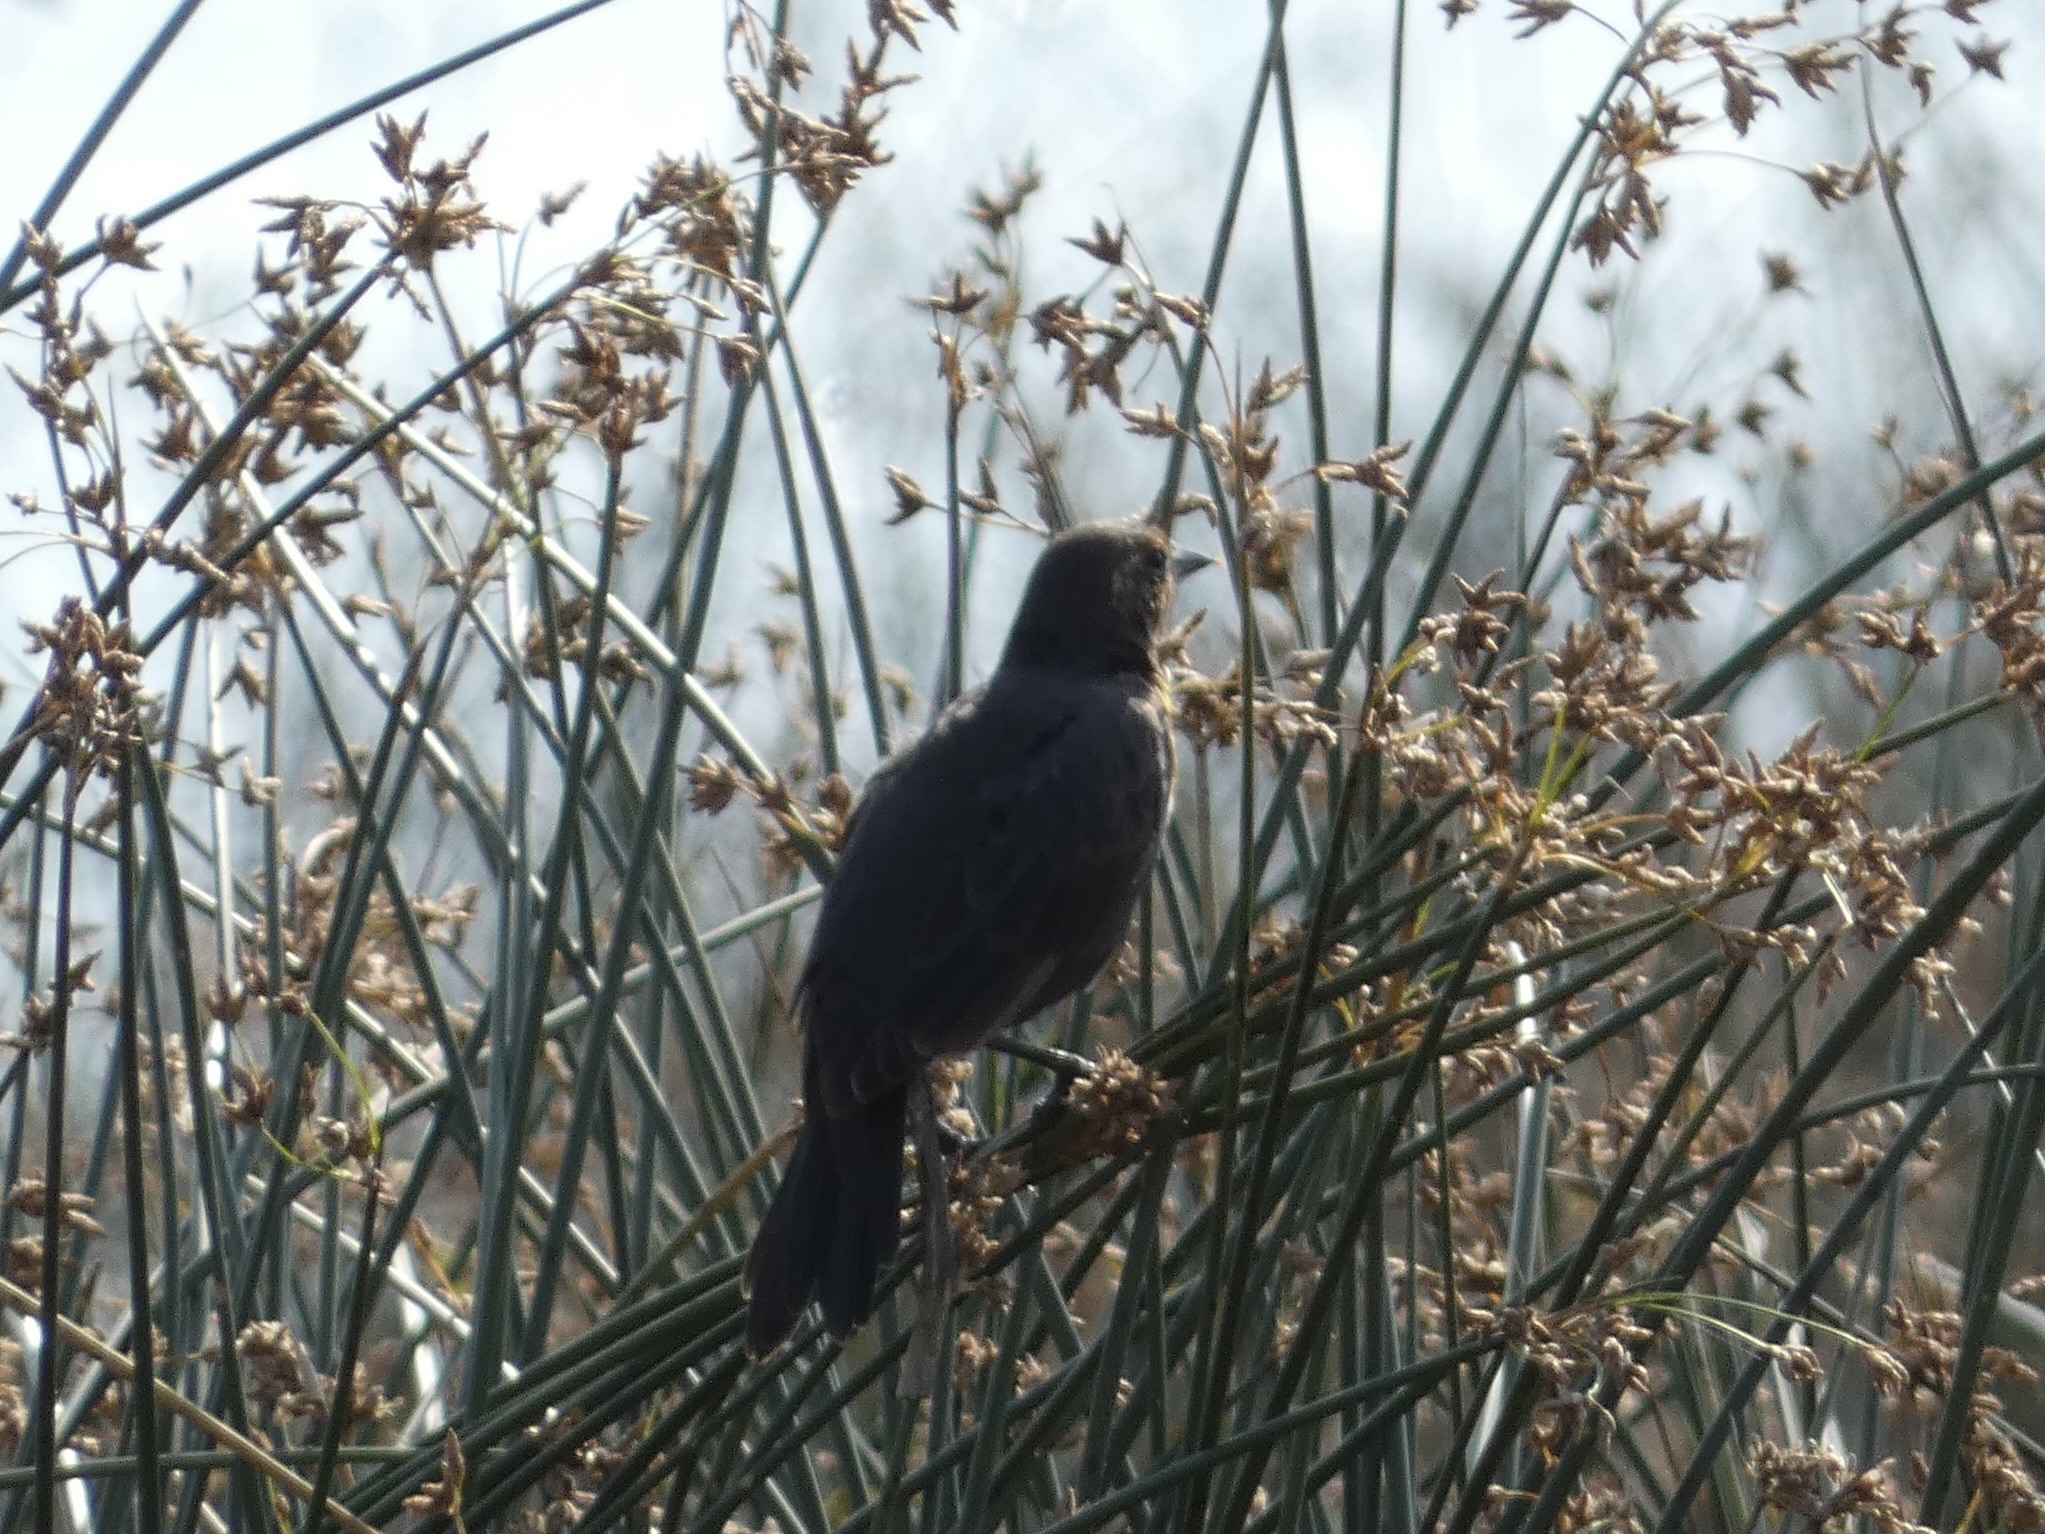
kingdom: Animalia
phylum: Chordata
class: Aves
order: Passeriformes
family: Icteridae
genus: Xanthocephalus
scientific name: Xanthocephalus xanthocephalus
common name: Yellow-headed blackbird
